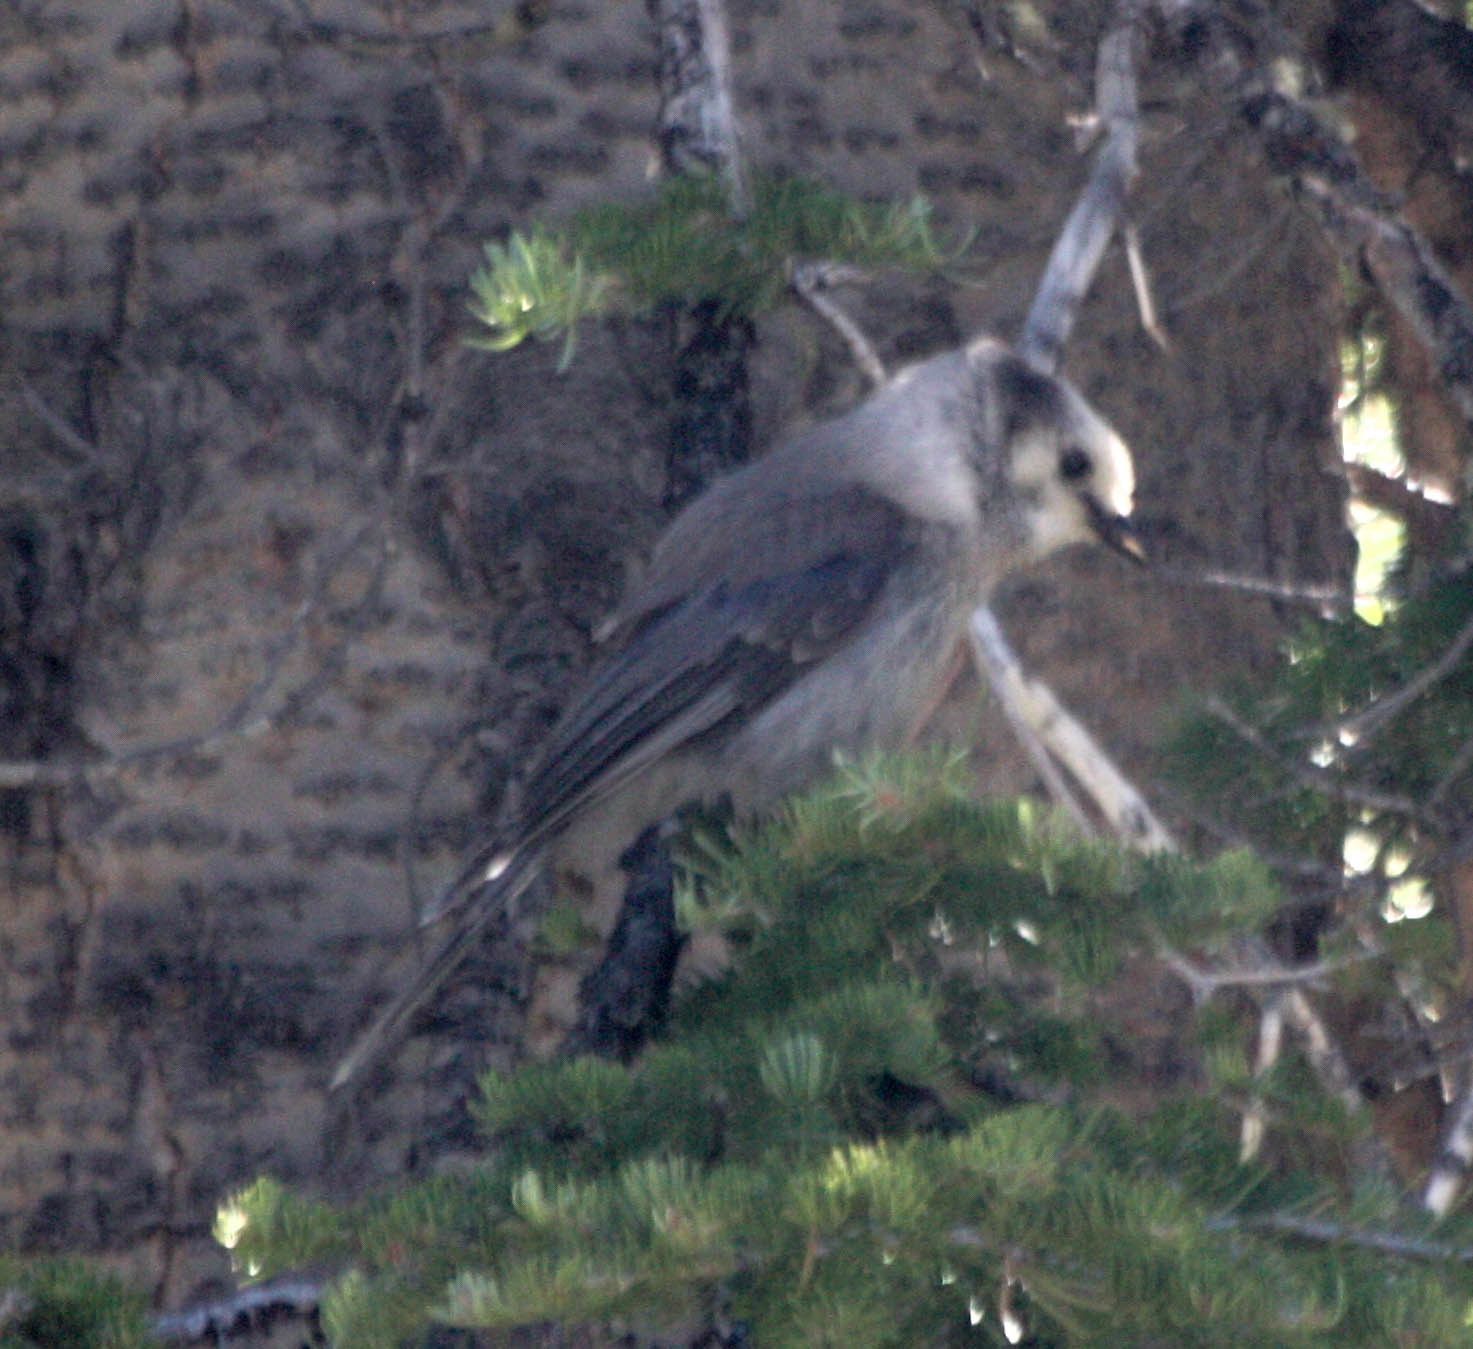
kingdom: Animalia
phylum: Chordata
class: Aves
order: Passeriformes
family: Corvidae
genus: Perisoreus
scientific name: Perisoreus canadensis
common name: Gray jay
